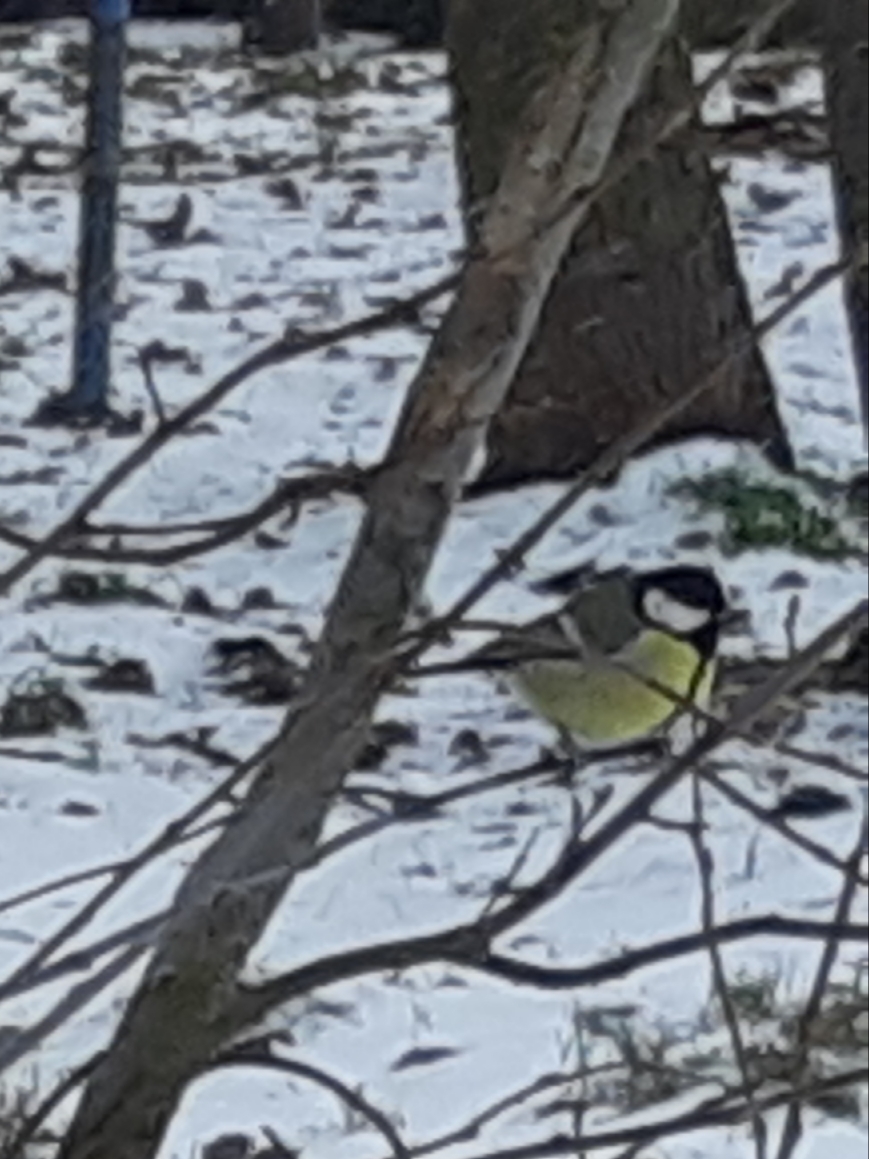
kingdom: Animalia
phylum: Chordata
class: Aves
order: Passeriformes
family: Paridae
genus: Parus
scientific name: Parus major
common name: Great tit
